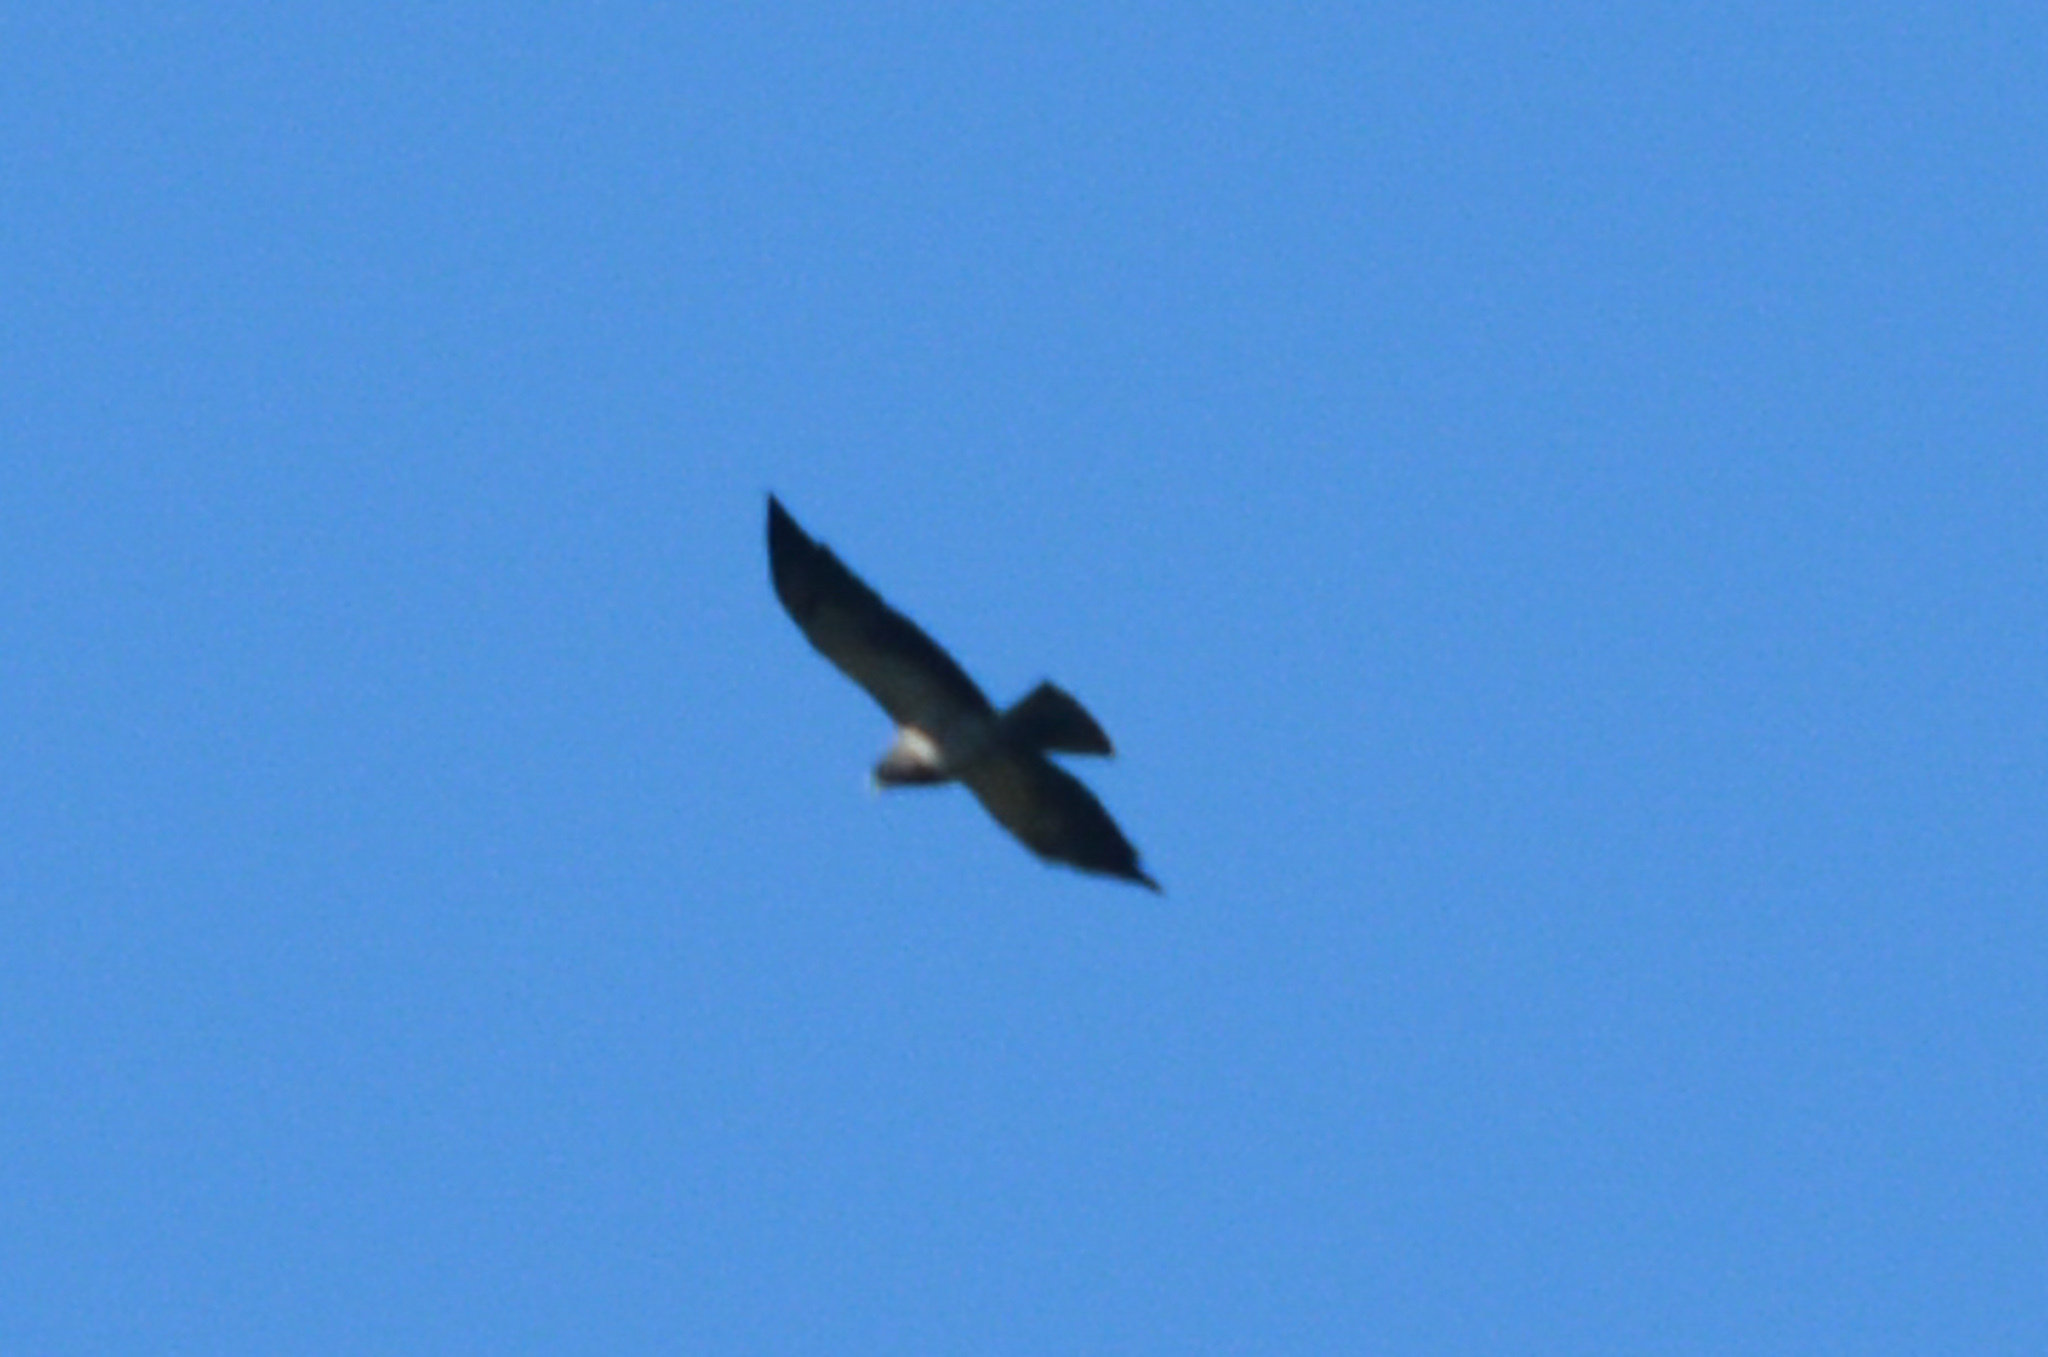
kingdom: Animalia
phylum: Chordata
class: Aves
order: Accipitriformes
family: Accipitridae
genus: Buteo
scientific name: Buteo swainsoni
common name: Swainson's hawk
